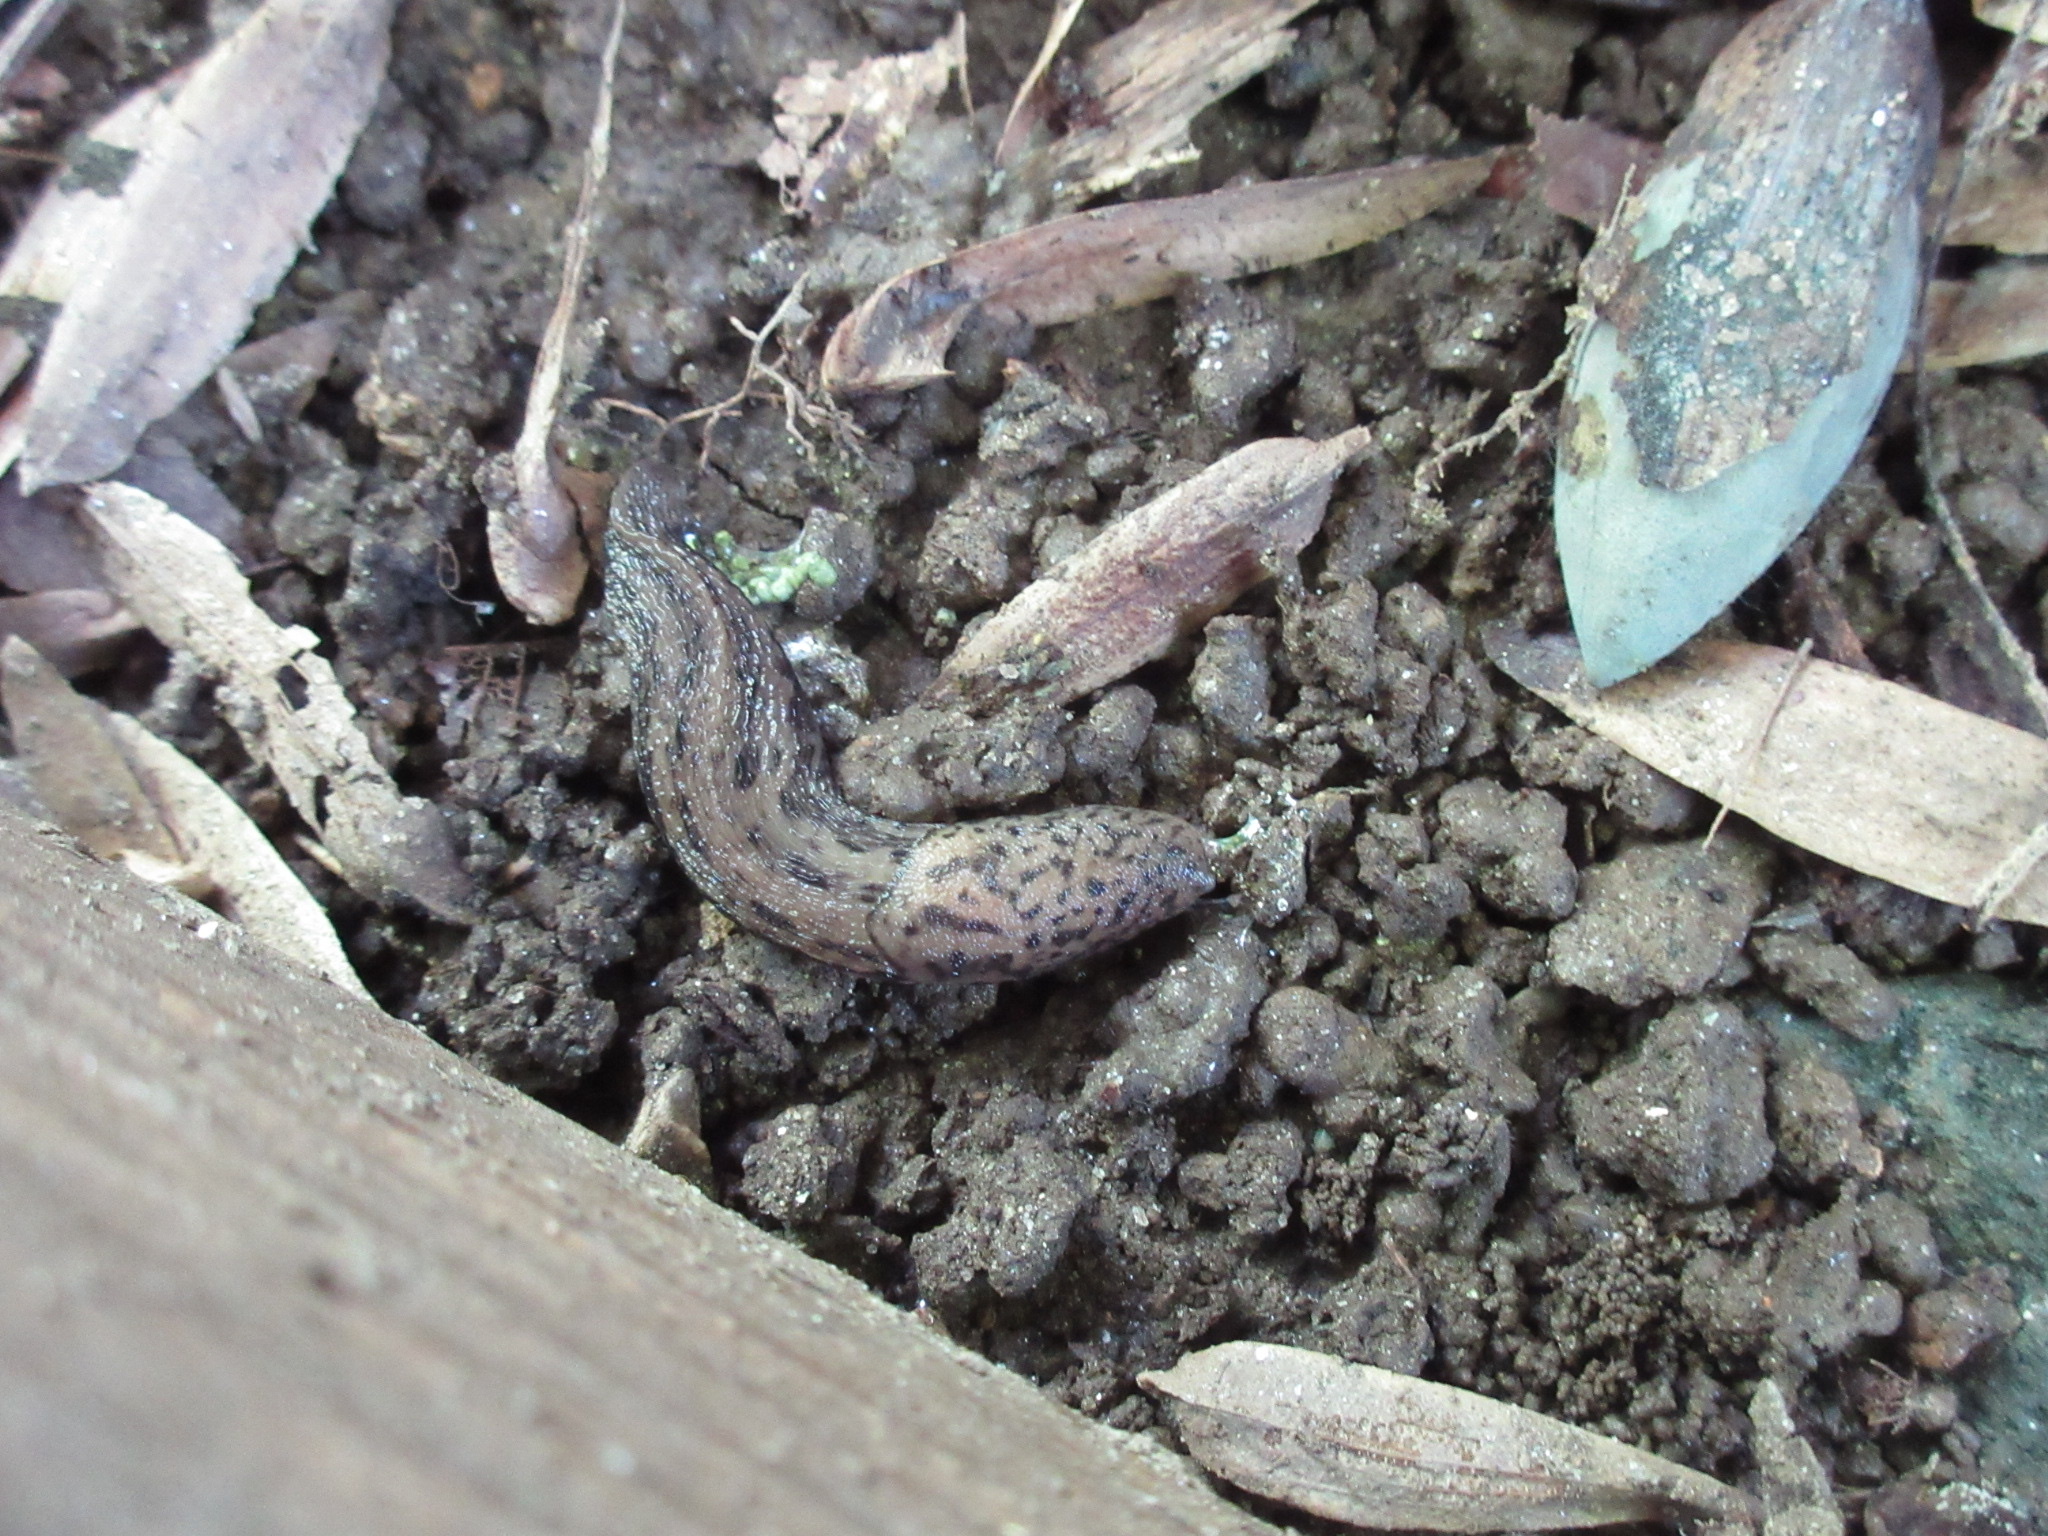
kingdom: Animalia
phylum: Mollusca
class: Gastropoda
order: Stylommatophora
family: Limacidae
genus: Limax
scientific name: Limax maximus
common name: Great grey slug
